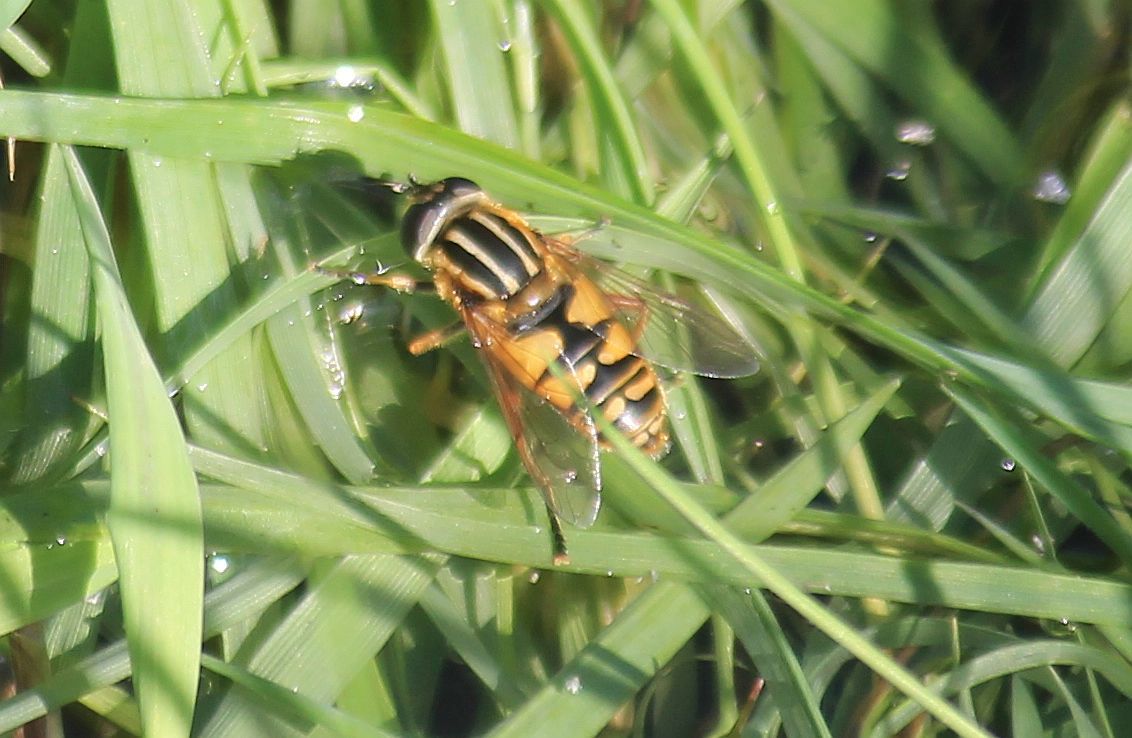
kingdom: Animalia
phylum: Arthropoda
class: Insecta
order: Diptera
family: Syrphidae
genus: Helophilus
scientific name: Helophilus pendulus
